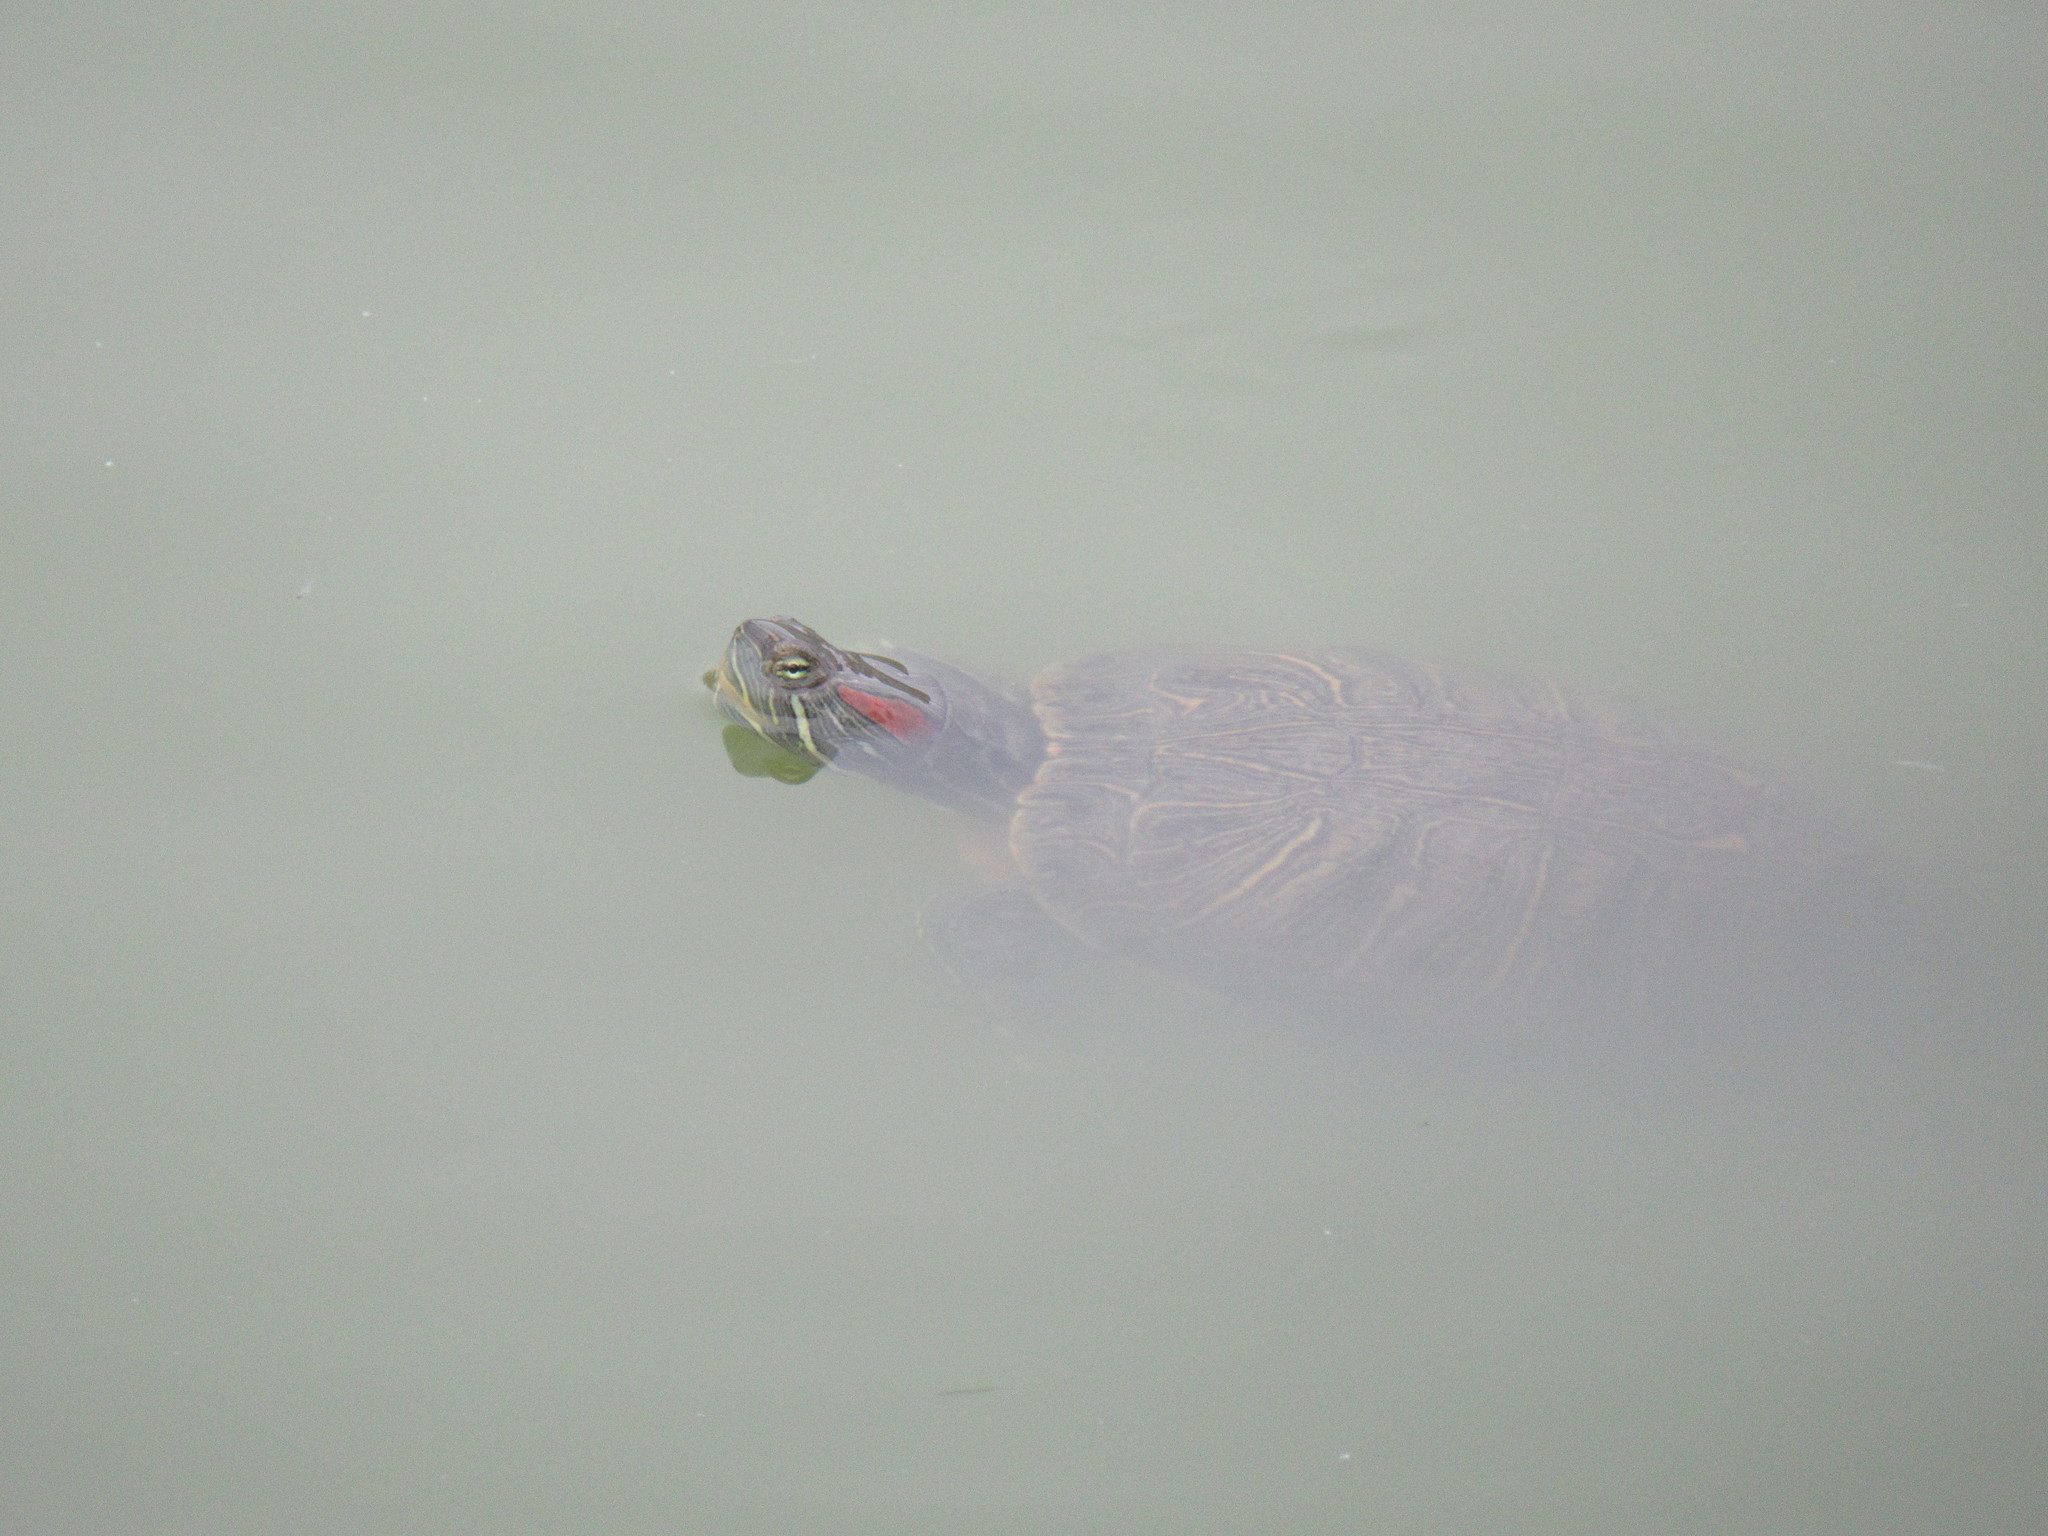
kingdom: Animalia
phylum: Chordata
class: Testudines
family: Emydidae
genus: Trachemys
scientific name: Trachemys scripta
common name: Slider
